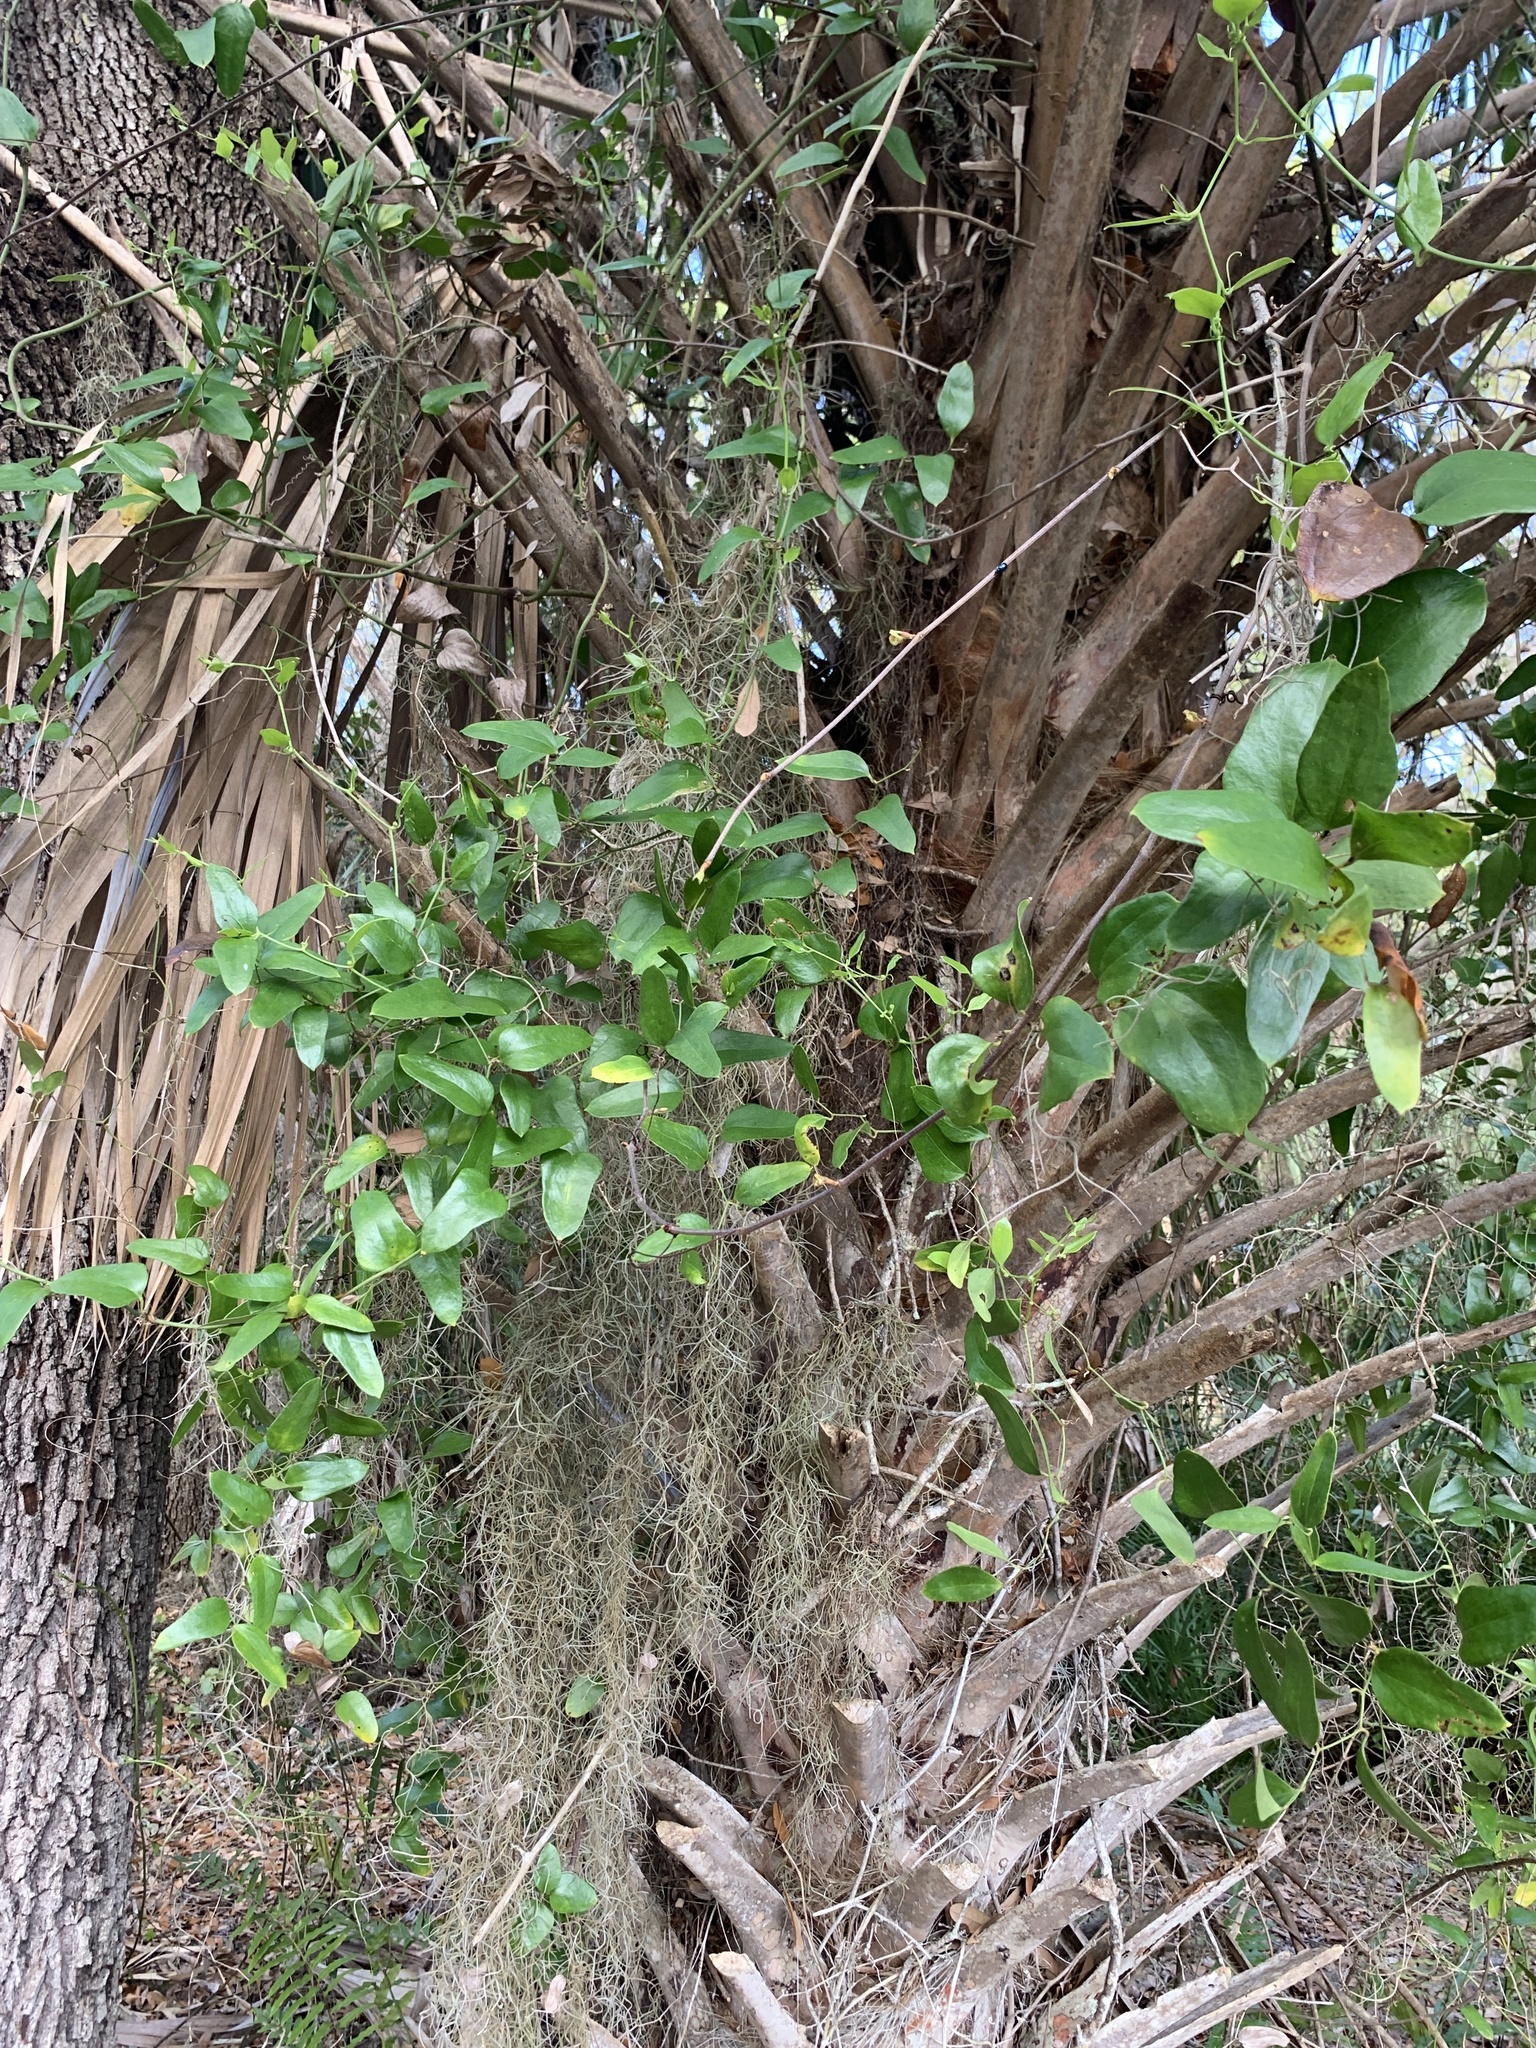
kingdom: Plantae
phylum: Tracheophyta
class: Liliopsida
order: Liliales
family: Smilacaceae
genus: Smilax
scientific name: Smilax auriculata
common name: Wild bamboo
